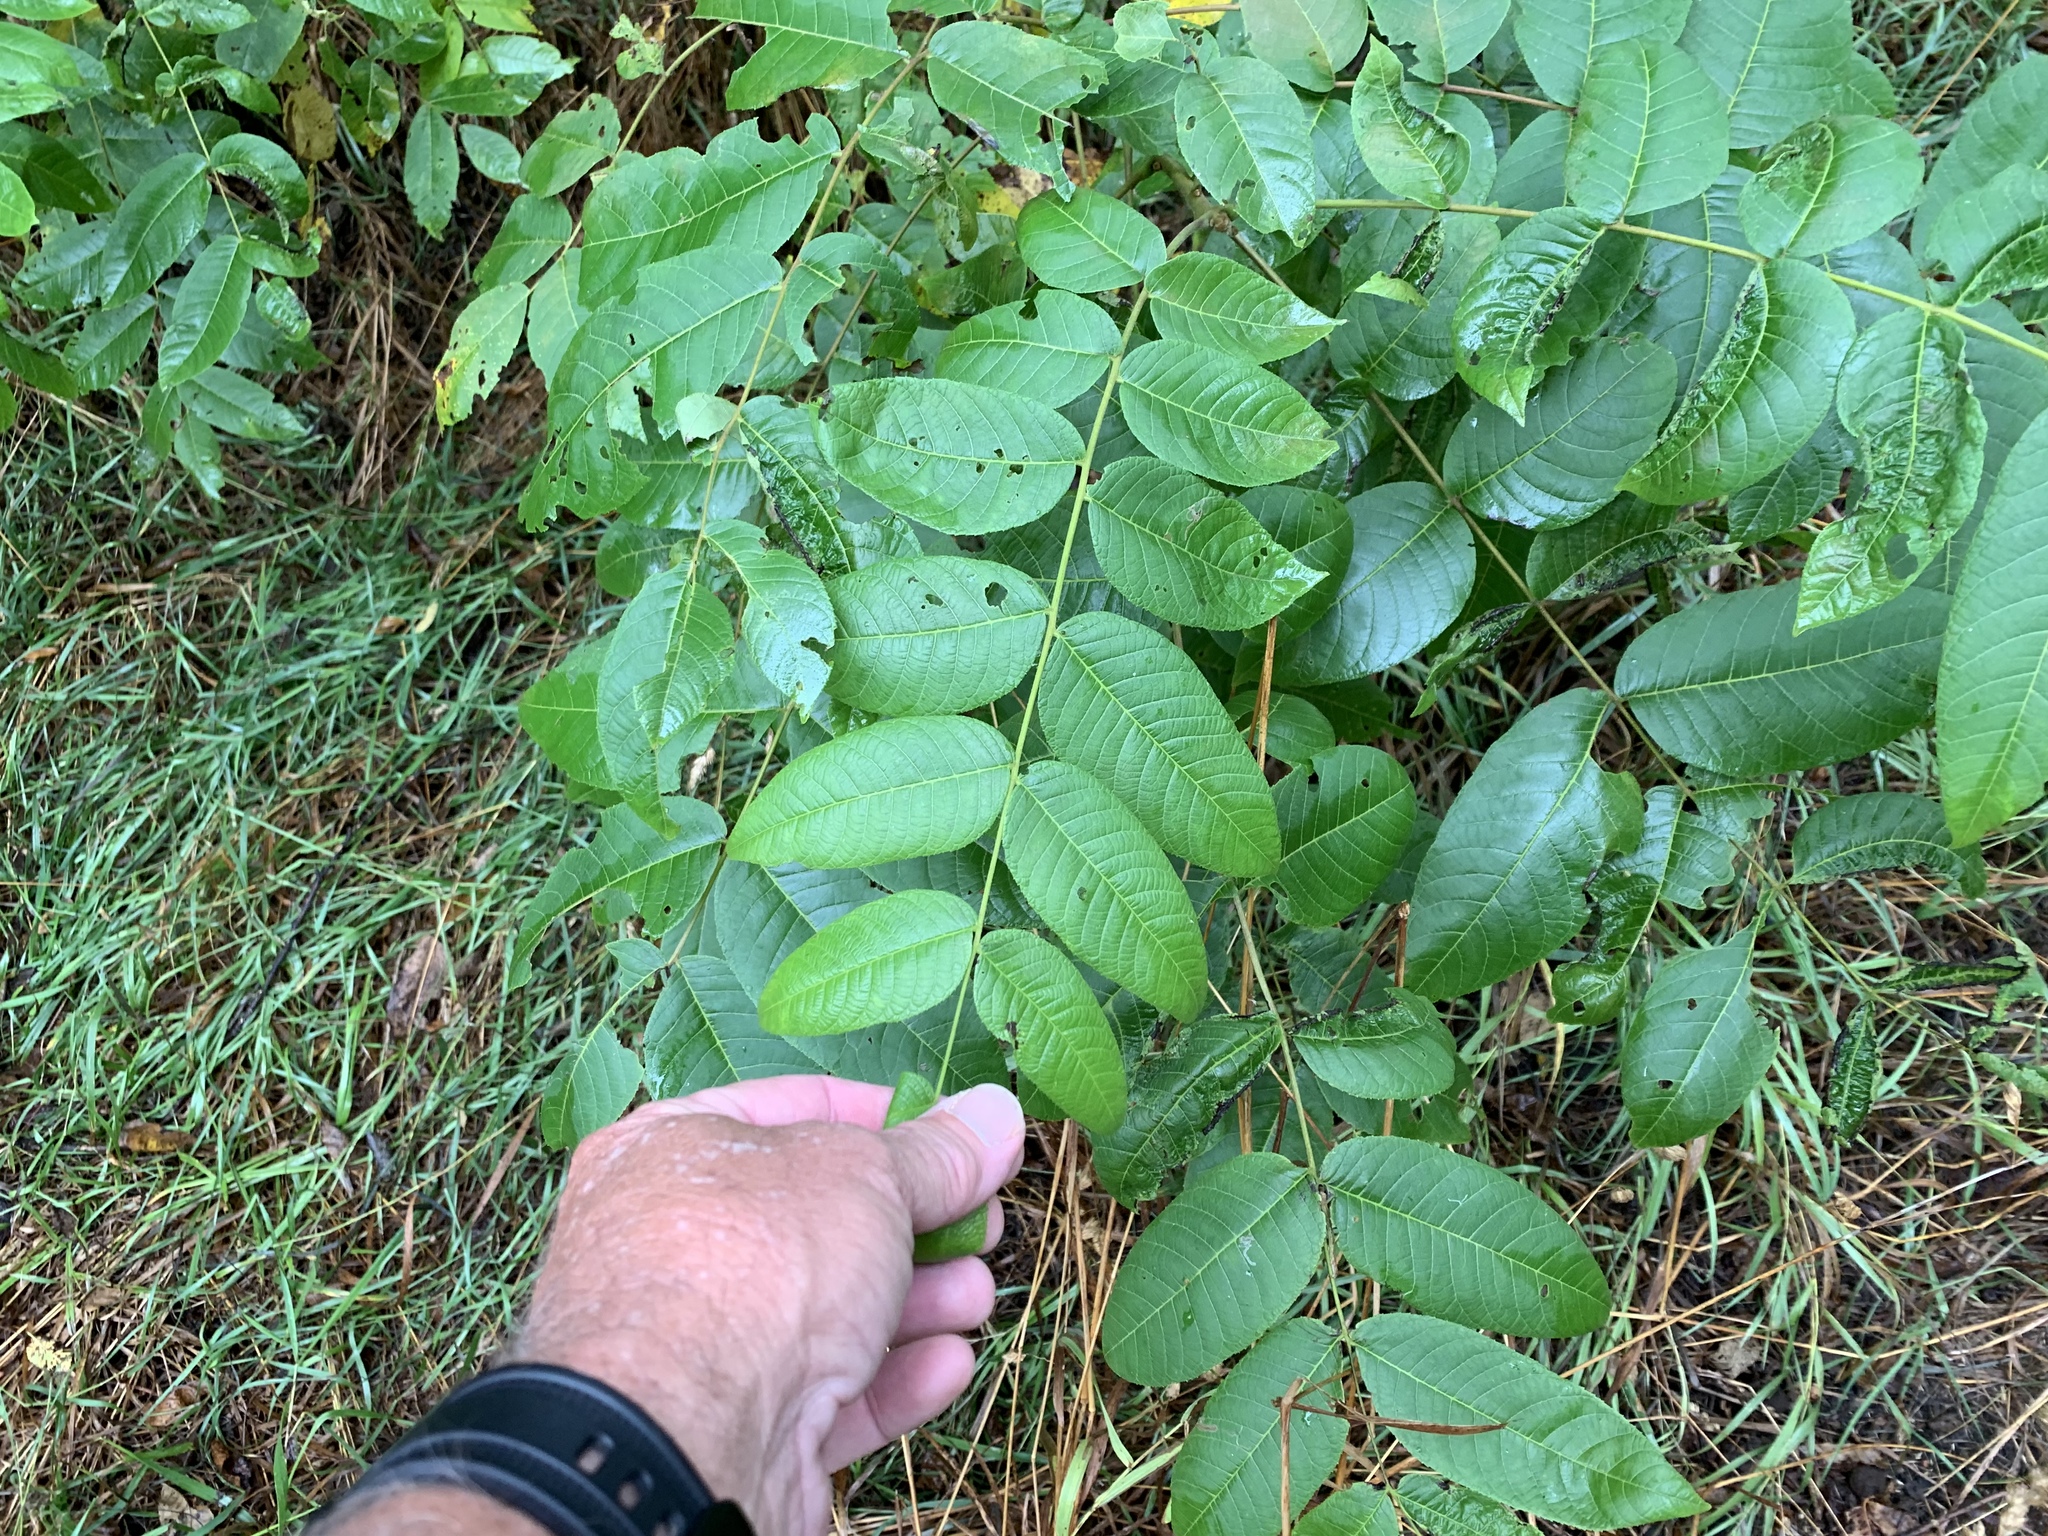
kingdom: Plantae
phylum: Tracheophyta
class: Magnoliopsida
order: Fagales
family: Juglandaceae
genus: Juglans
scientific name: Juglans nigra
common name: Black walnut
